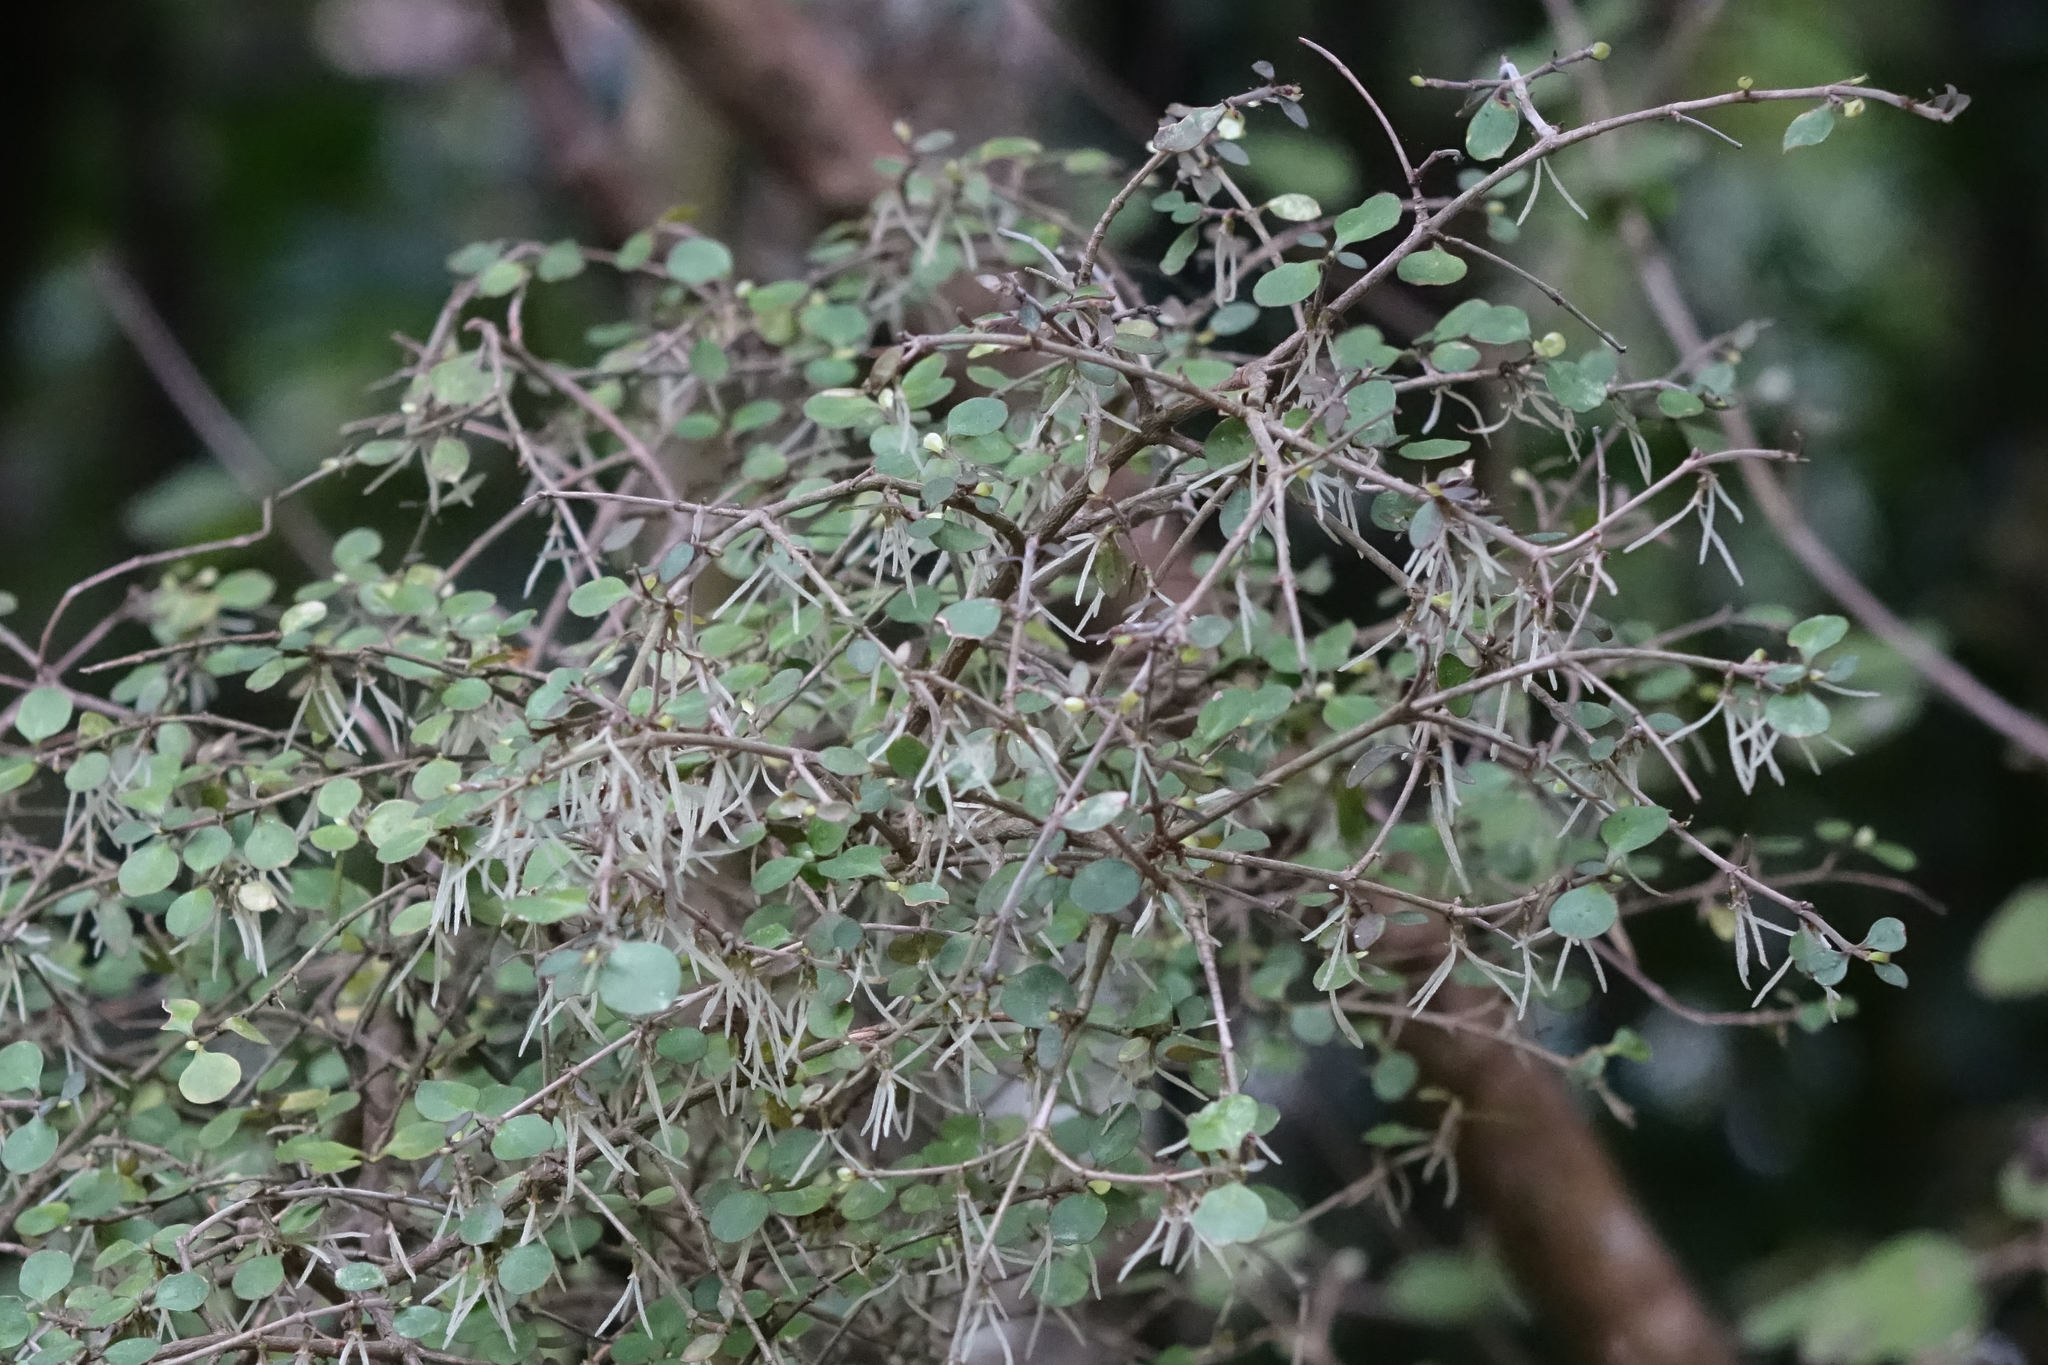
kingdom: Plantae
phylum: Tracheophyta
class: Magnoliopsida
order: Gentianales
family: Rubiaceae
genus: Coprosma
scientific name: Coprosma rhamnoides
